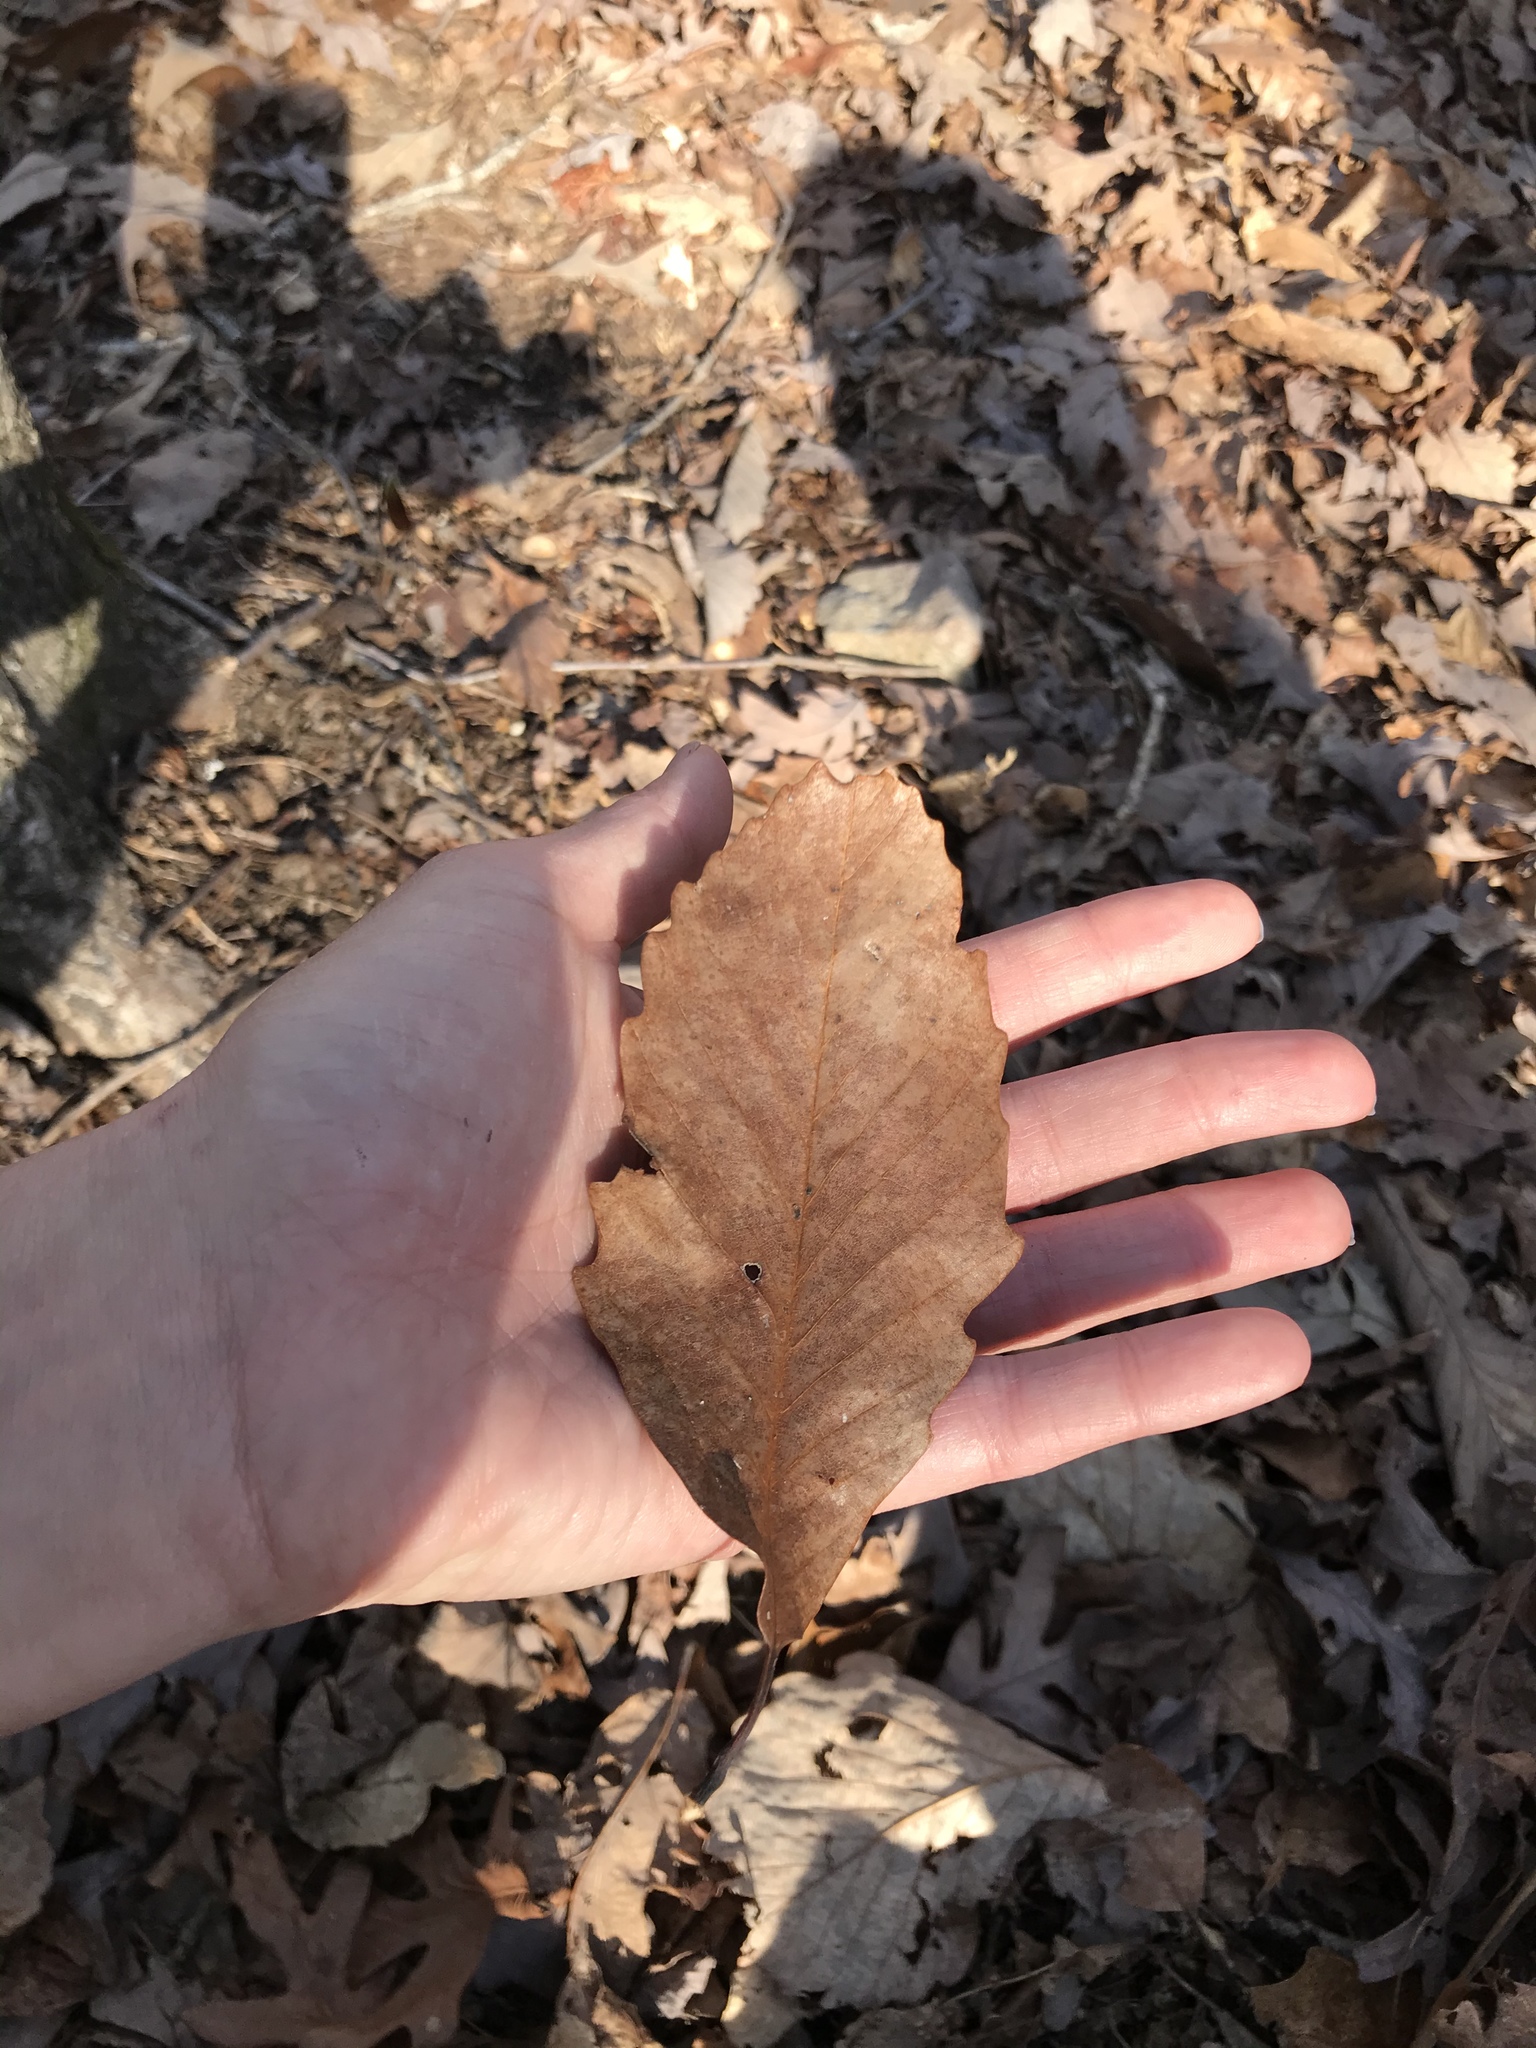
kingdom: Plantae
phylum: Tracheophyta
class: Magnoliopsida
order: Fagales
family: Fagaceae
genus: Quercus
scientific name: Quercus montana
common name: Chestnut oak
